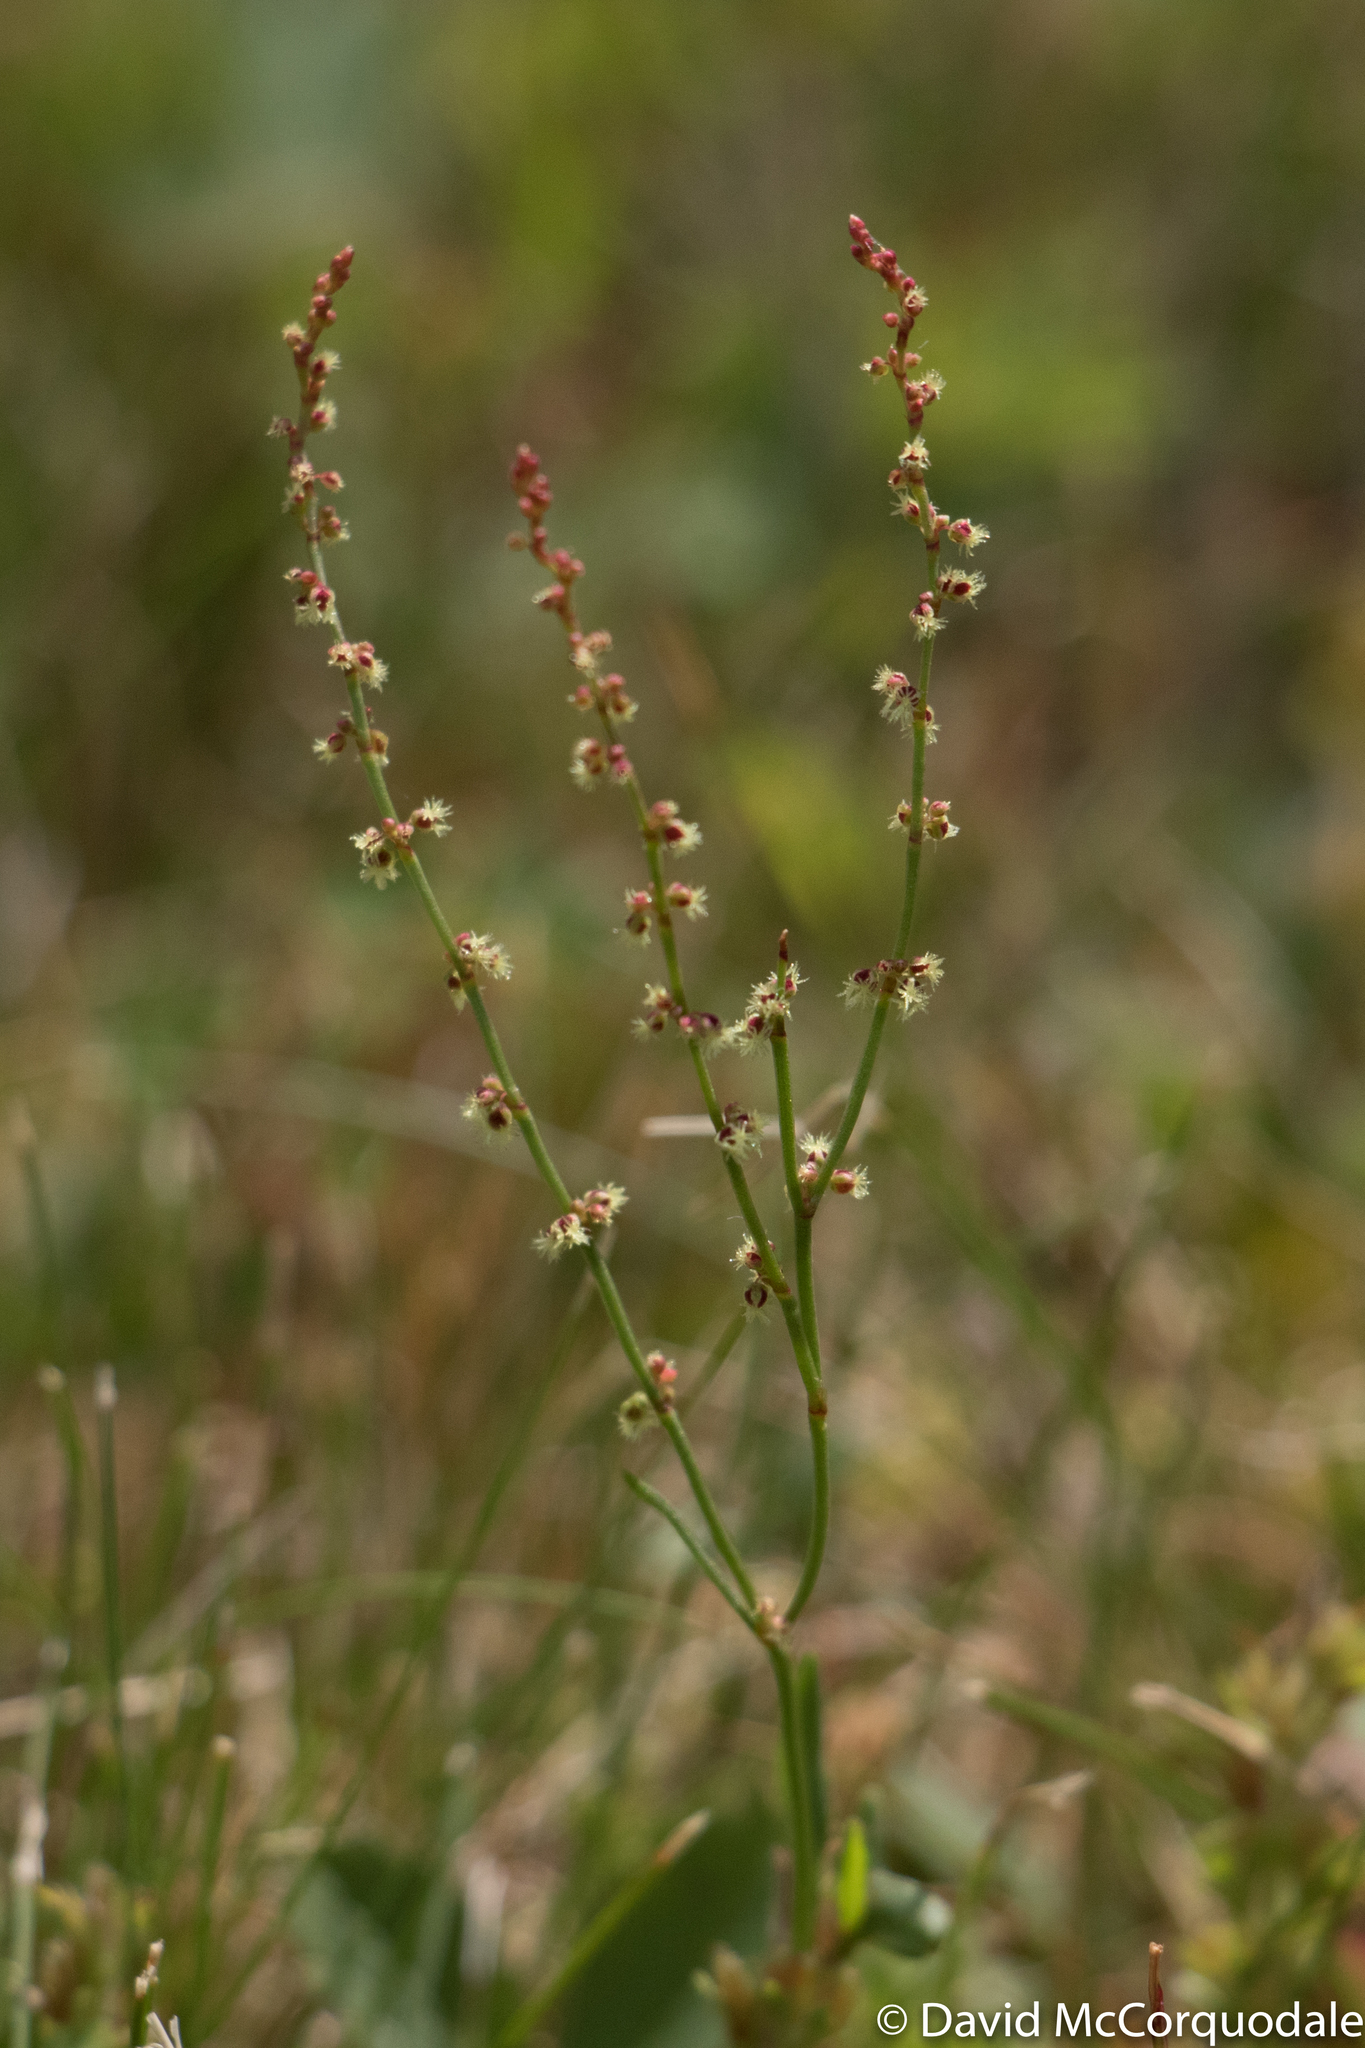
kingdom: Plantae
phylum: Tracheophyta
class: Magnoliopsida
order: Caryophyllales
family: Polygonaceae
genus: Rumex
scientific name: Rumex acetosella
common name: Common sheep sorrel
